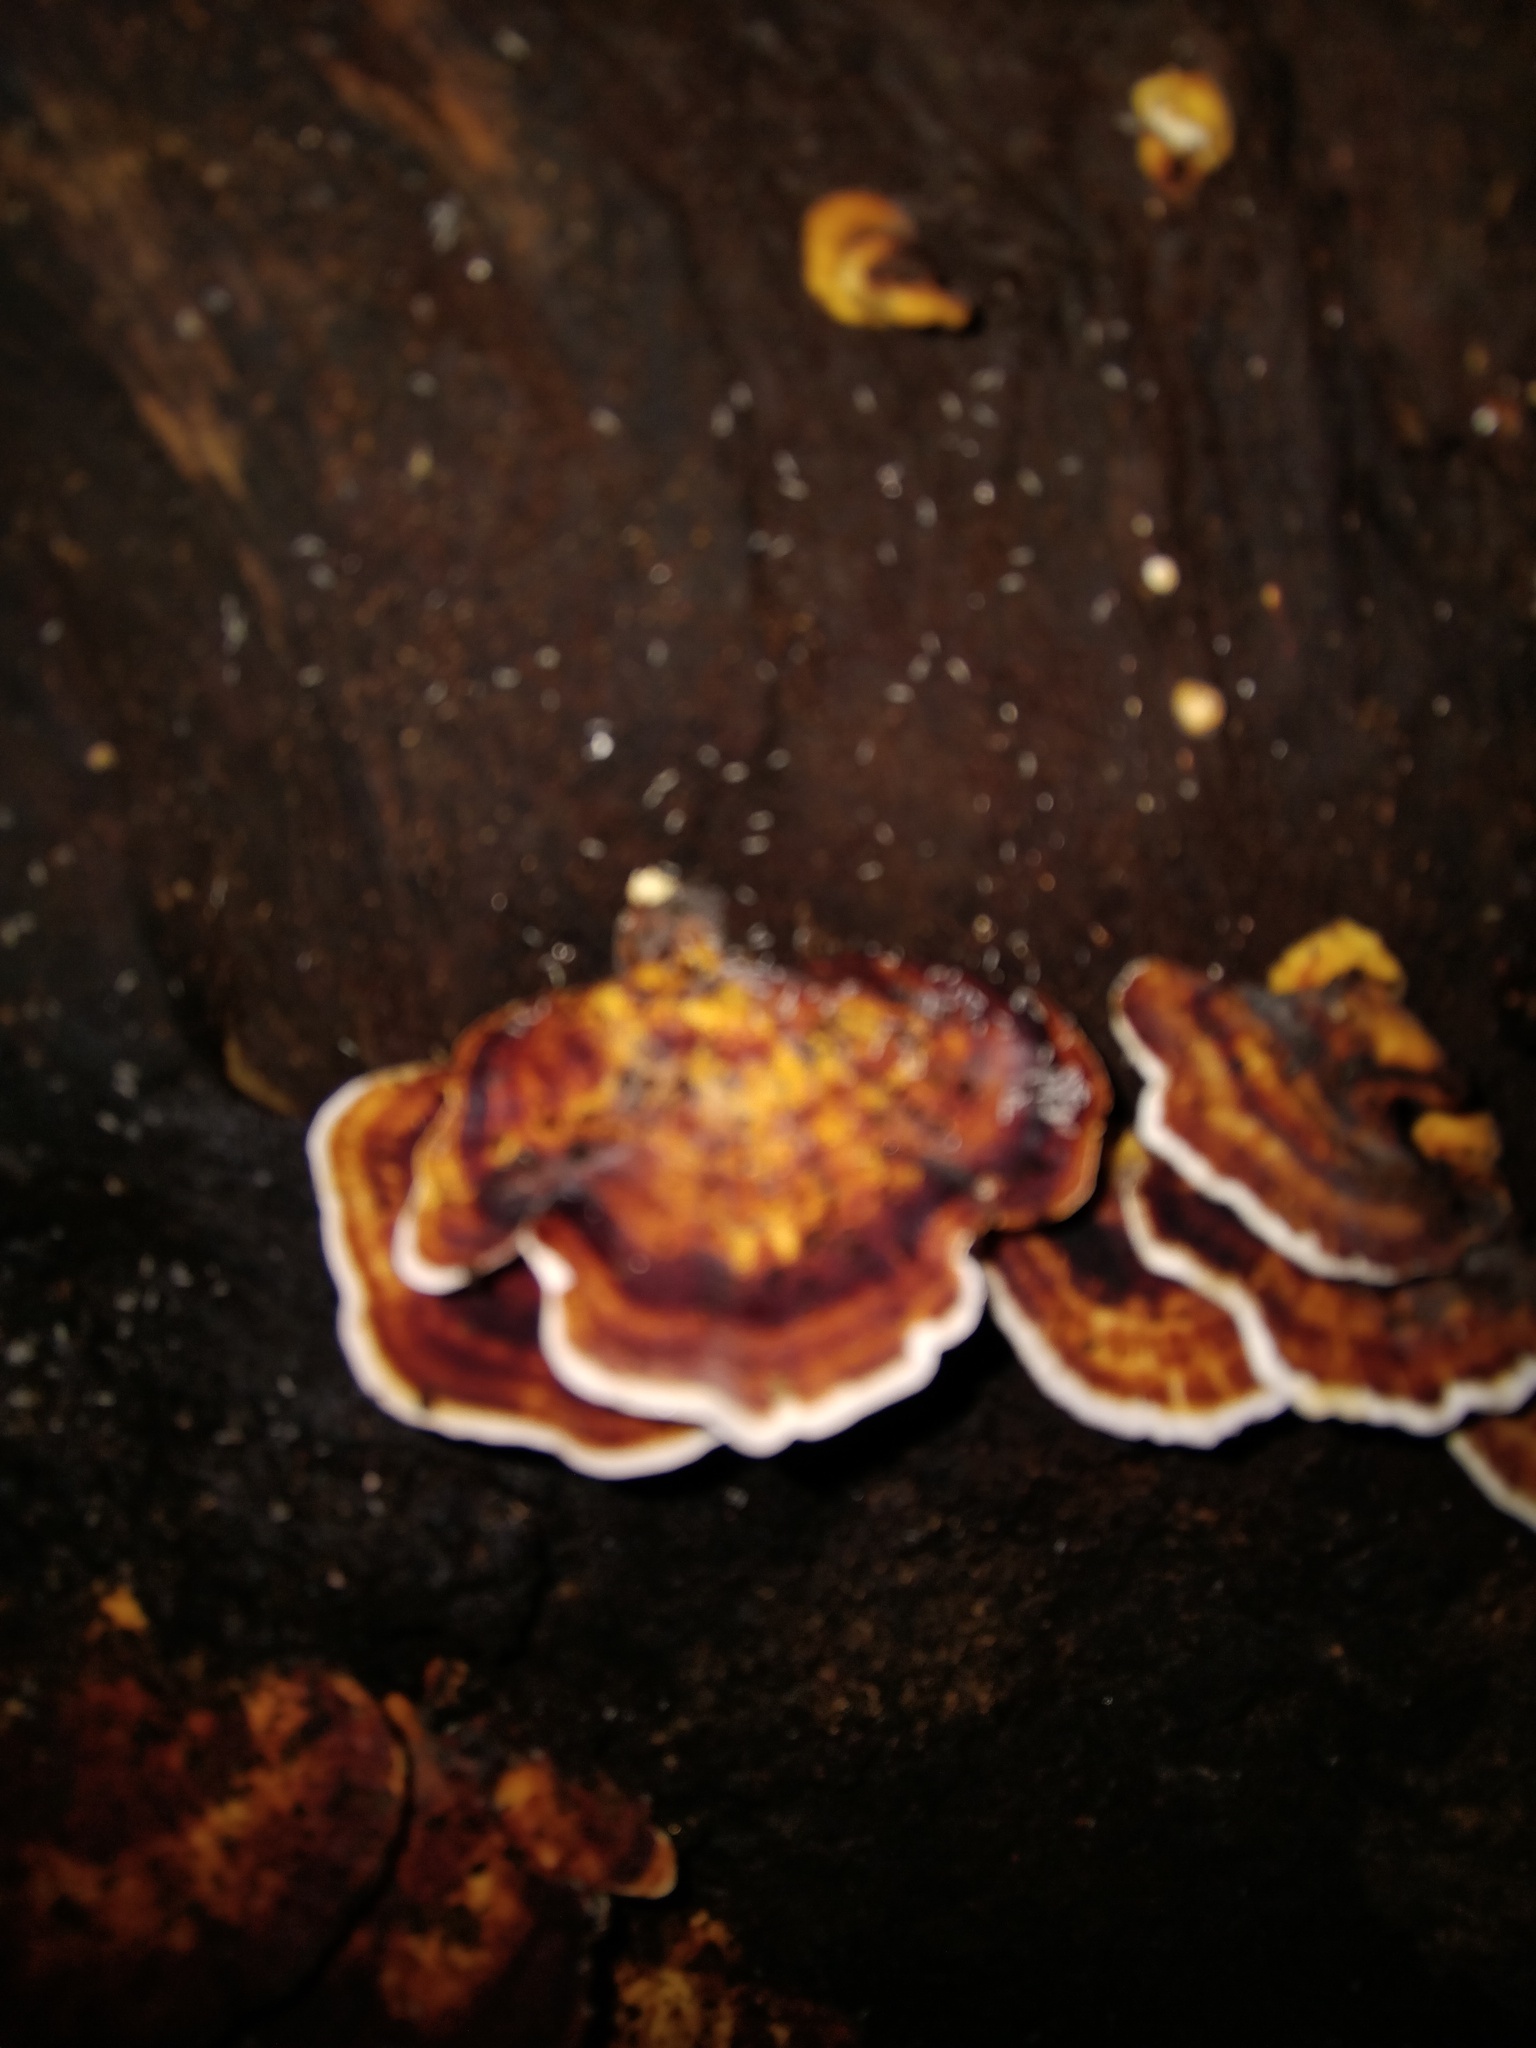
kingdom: Fungi
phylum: Basidiomycota
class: Agaricomycetes
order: Polyporales
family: Polyporaceae
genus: Microporus
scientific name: Microporus affinis
